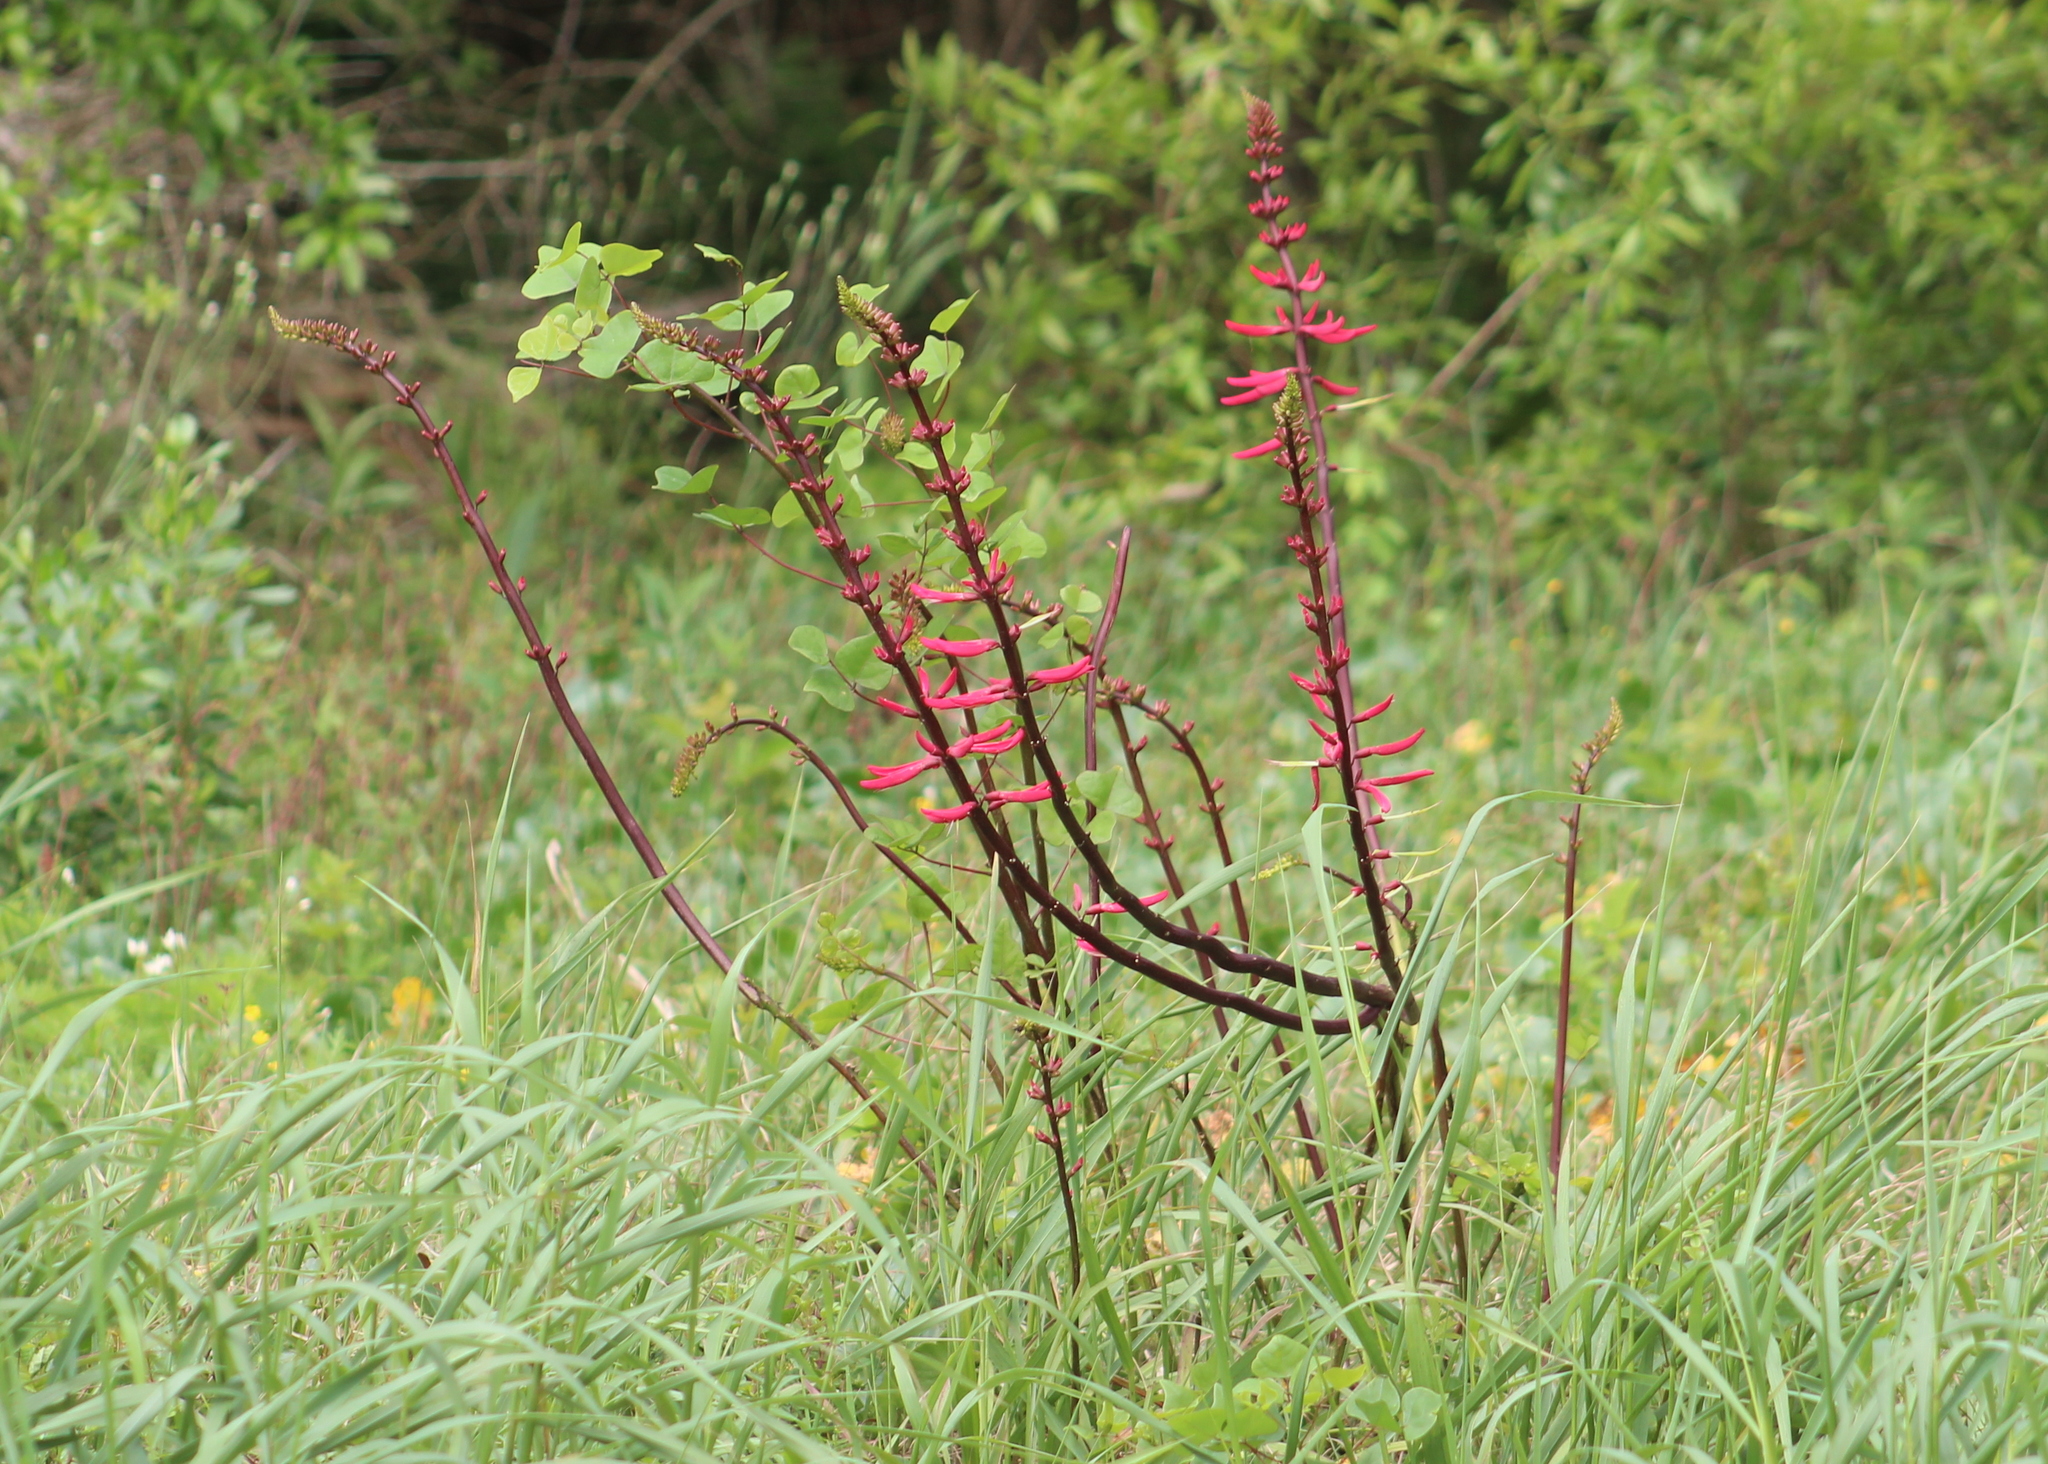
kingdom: Plantae
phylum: Tracheophyta
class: Magnoliopsida
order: Fabales
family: Fabaceae
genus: Erythrina
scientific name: Erythrina herbacea
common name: Coral-bean
